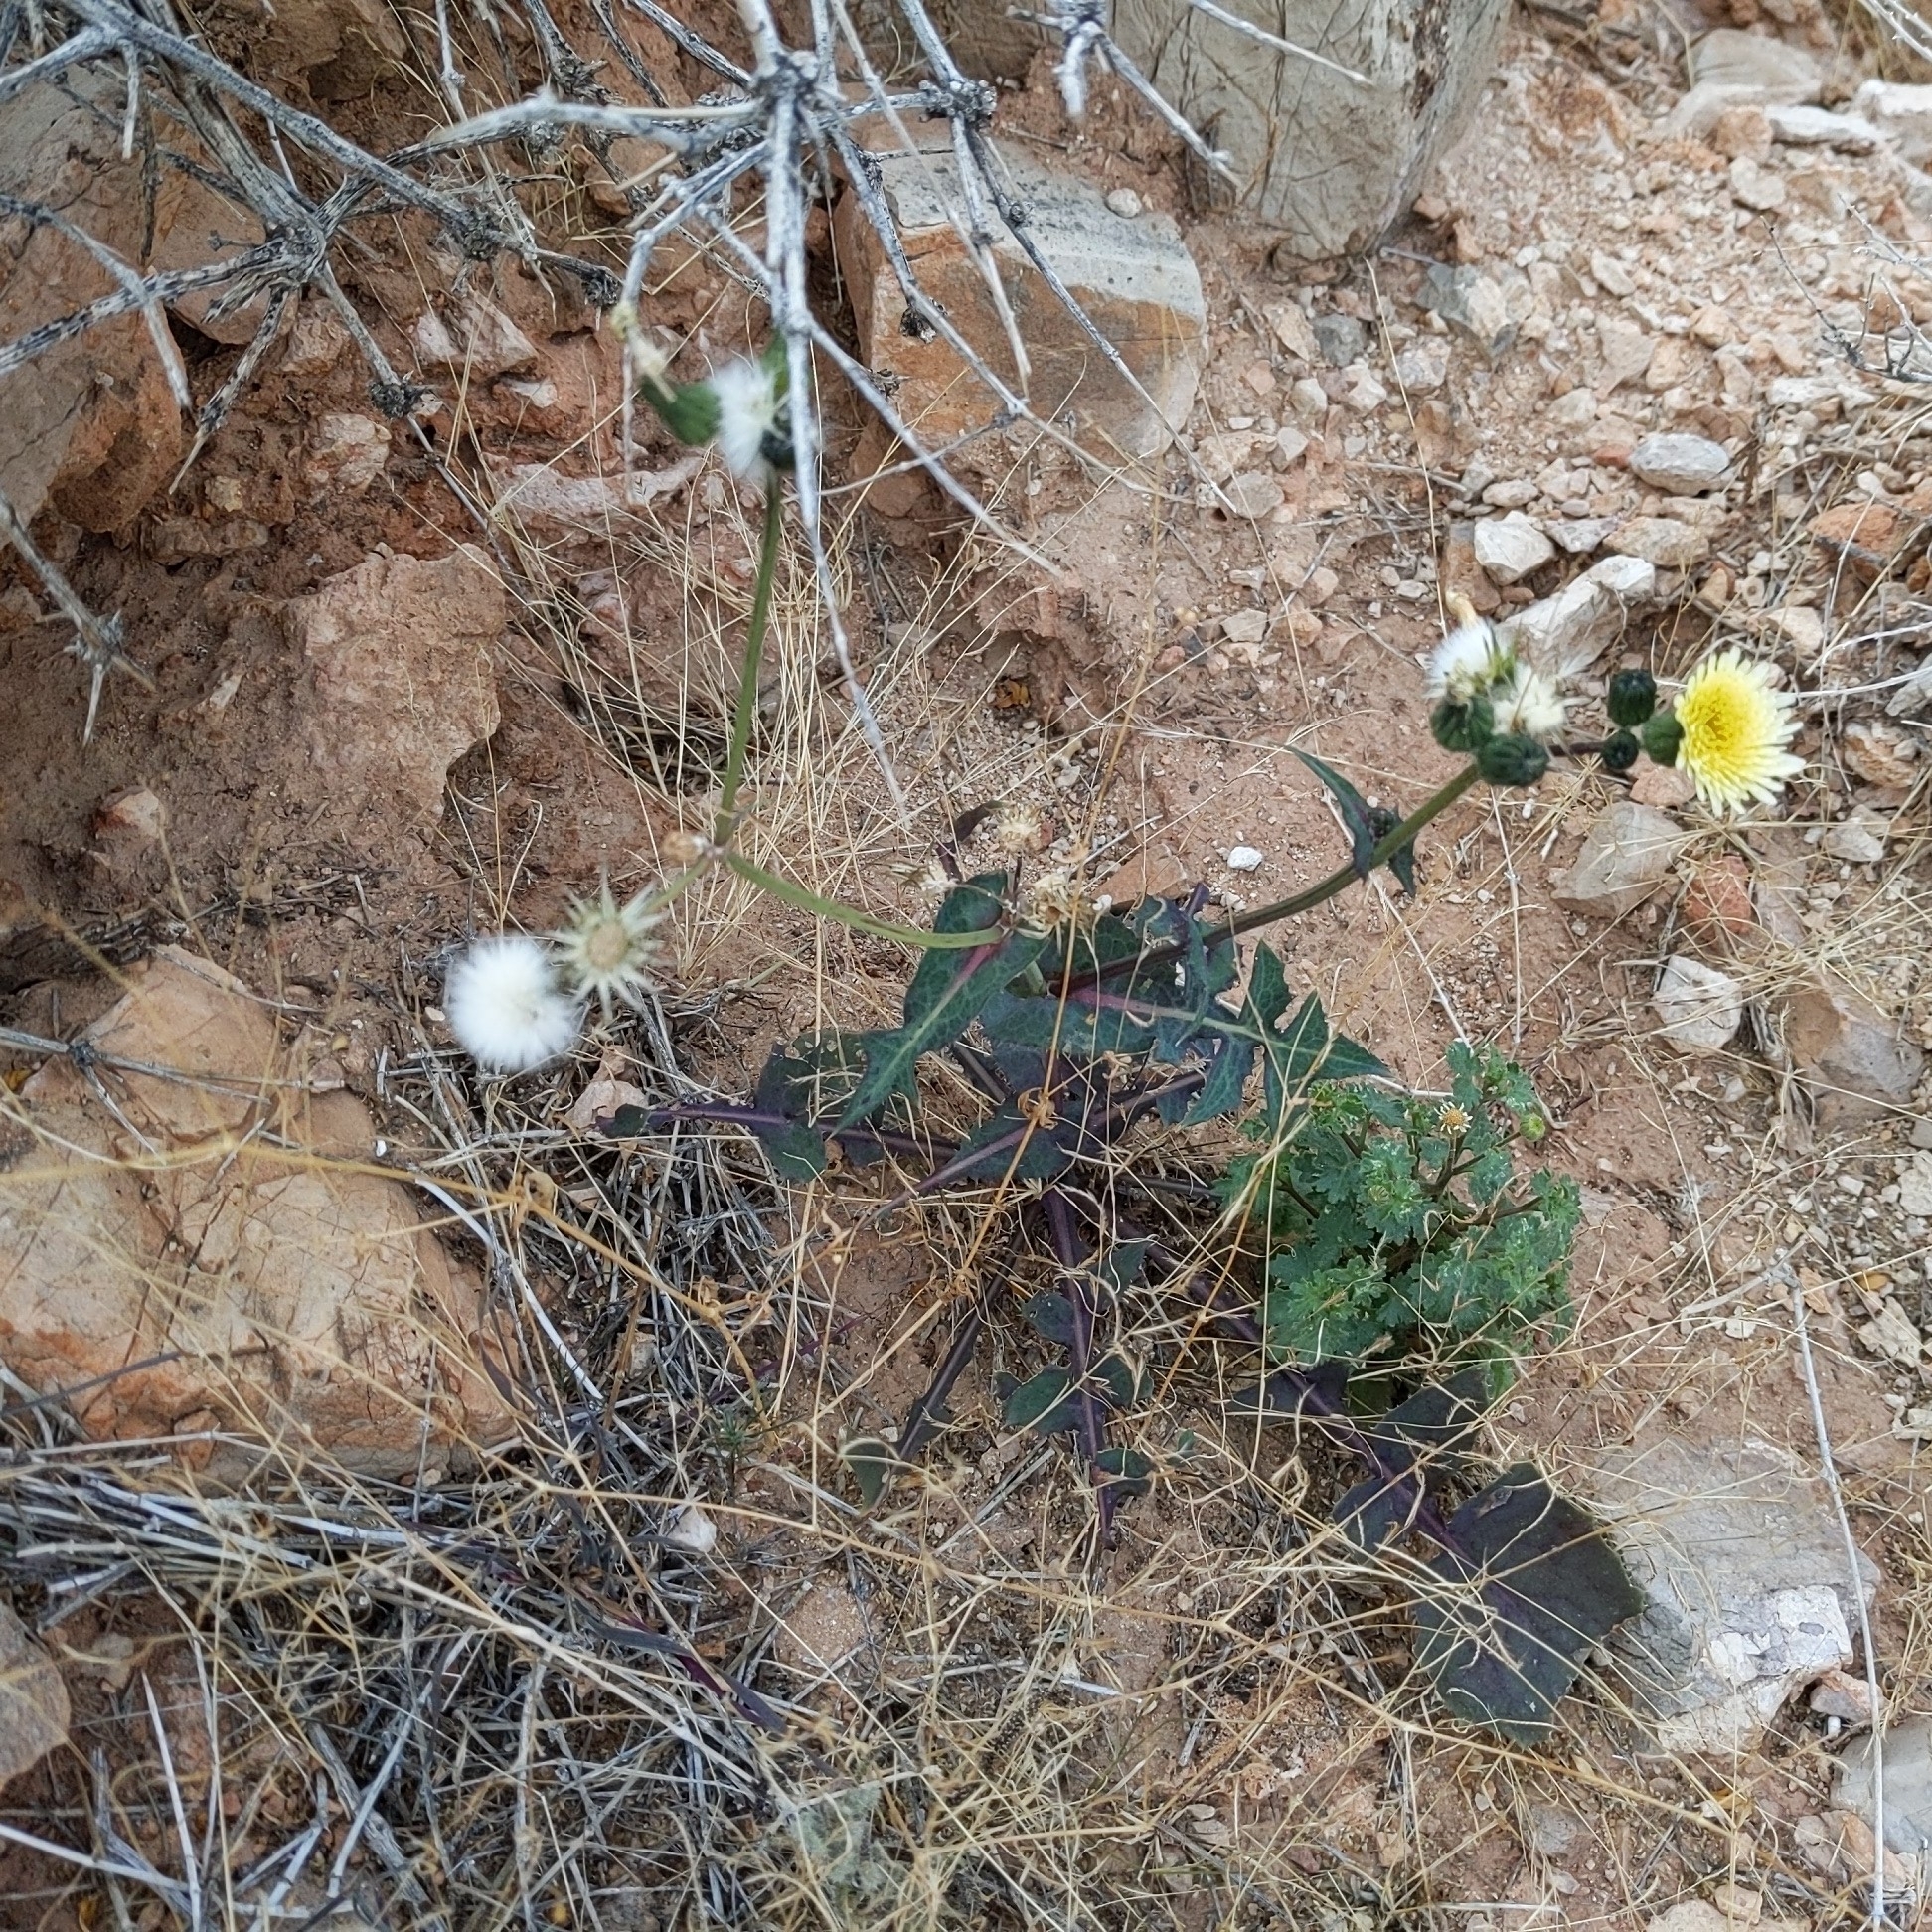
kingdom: Plantae
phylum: Tracheophyta
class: Magnoliopsida
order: Asterales
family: Asteraceae
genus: Sonchus
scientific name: Sonchus oleraceus
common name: Common sowthistle
